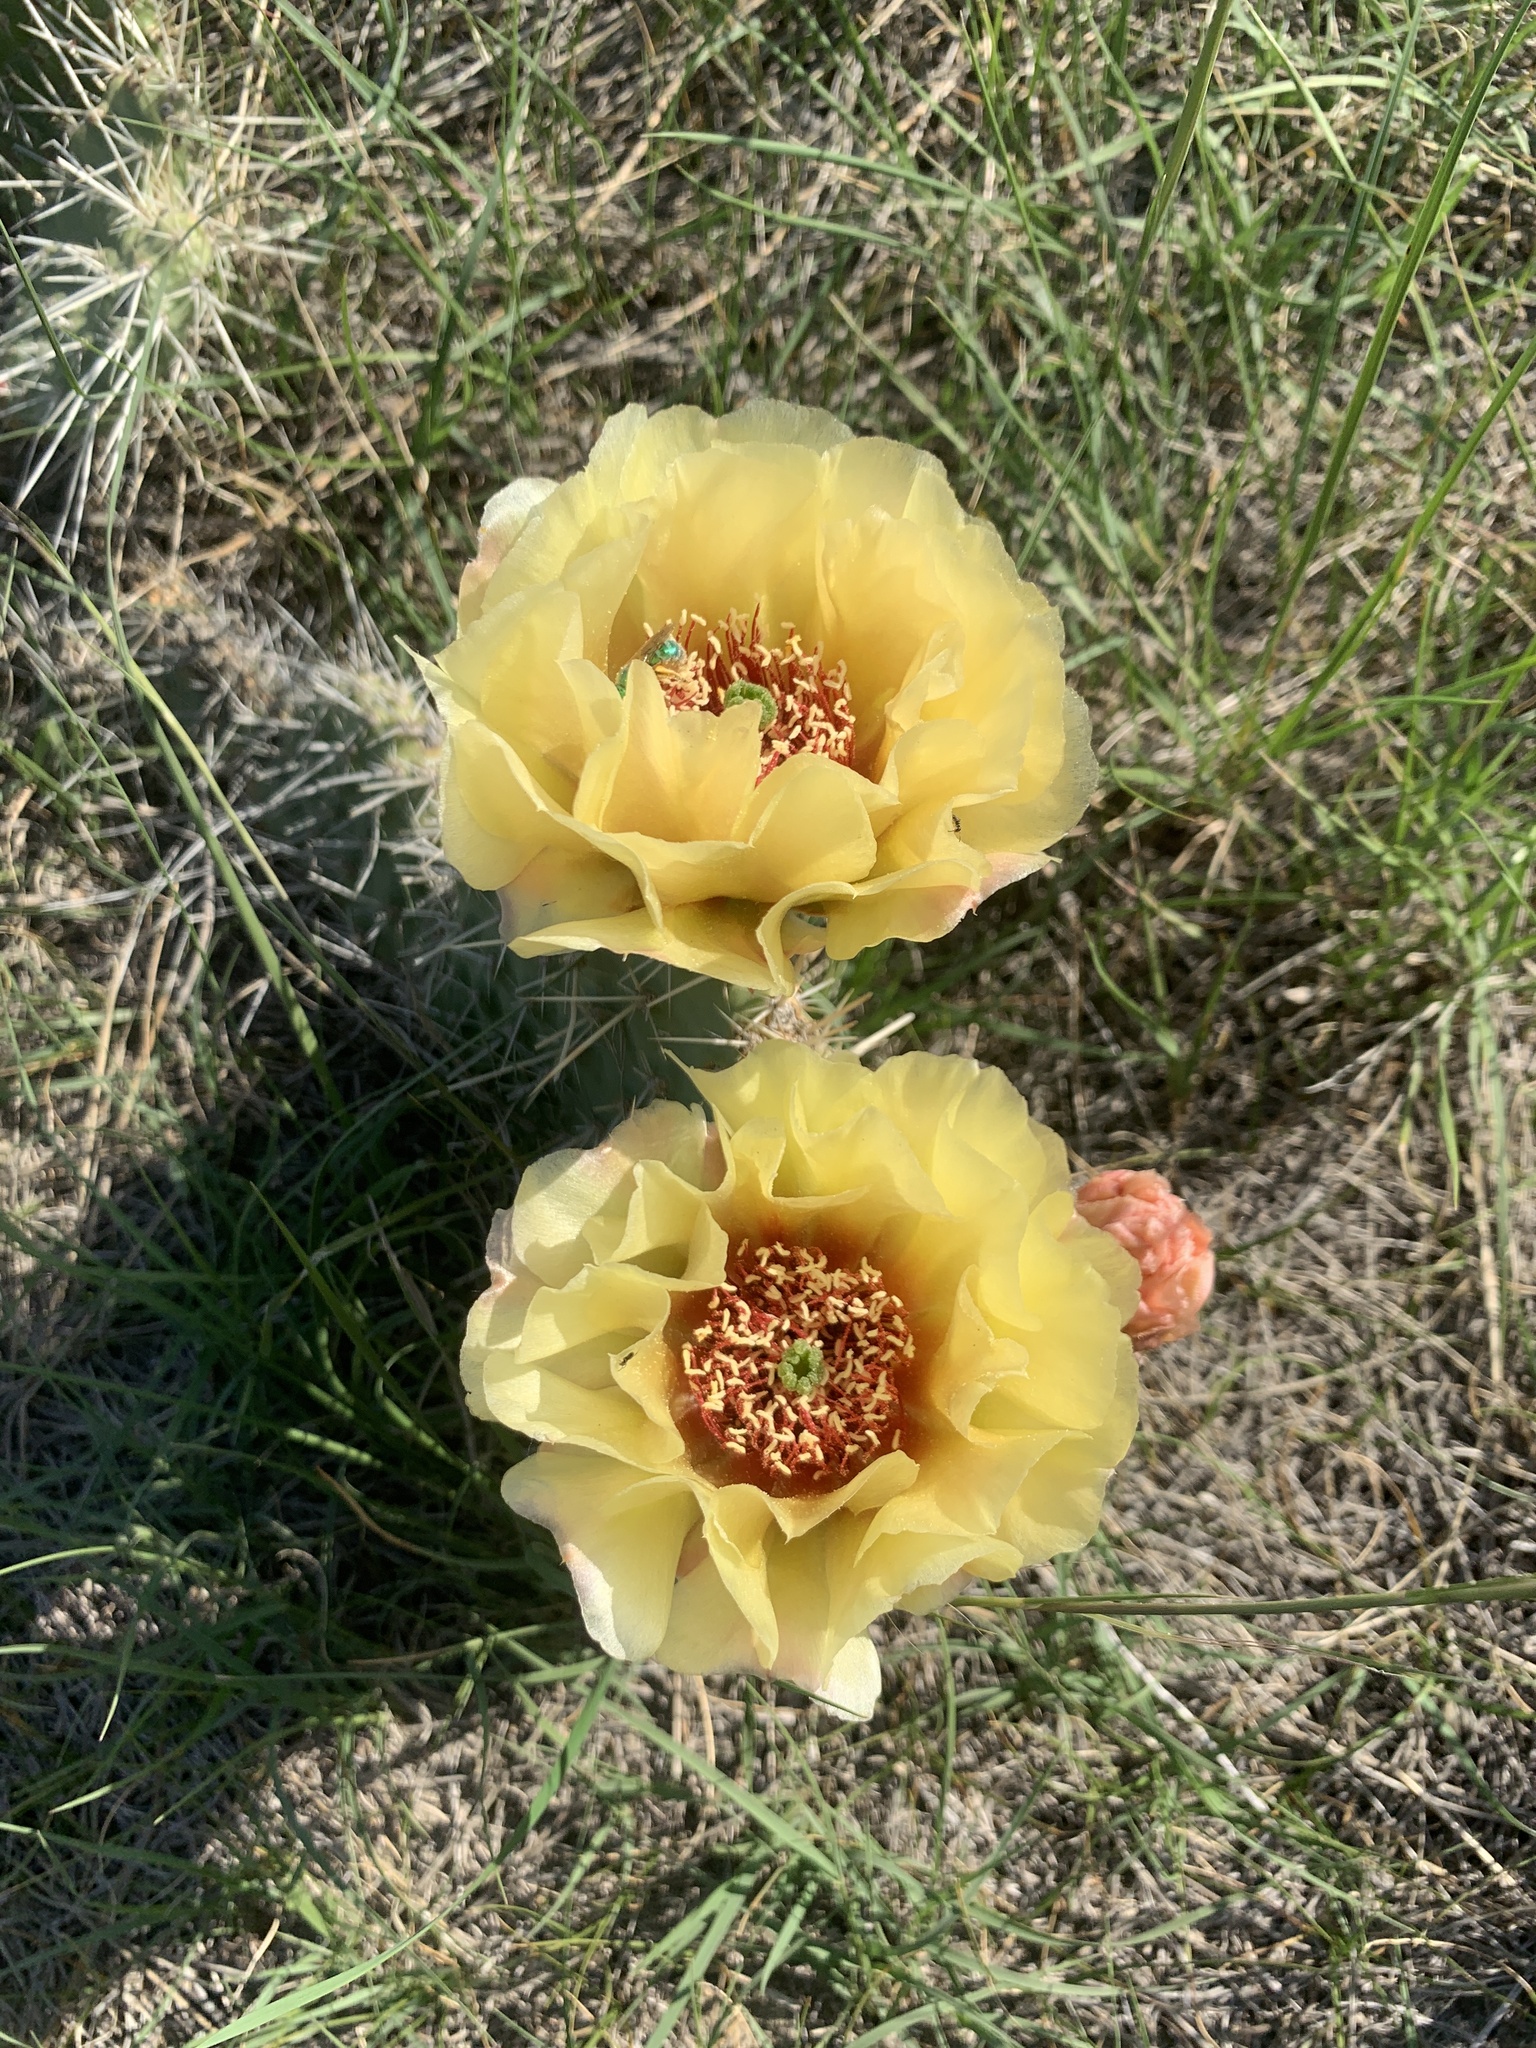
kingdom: Plantae
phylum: Tracheophyta
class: Magnoliopsida
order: Caryophyllales
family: Cactaceae
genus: Opuntia
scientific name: Opuntia polyacantha
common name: Plains prickly-pear
